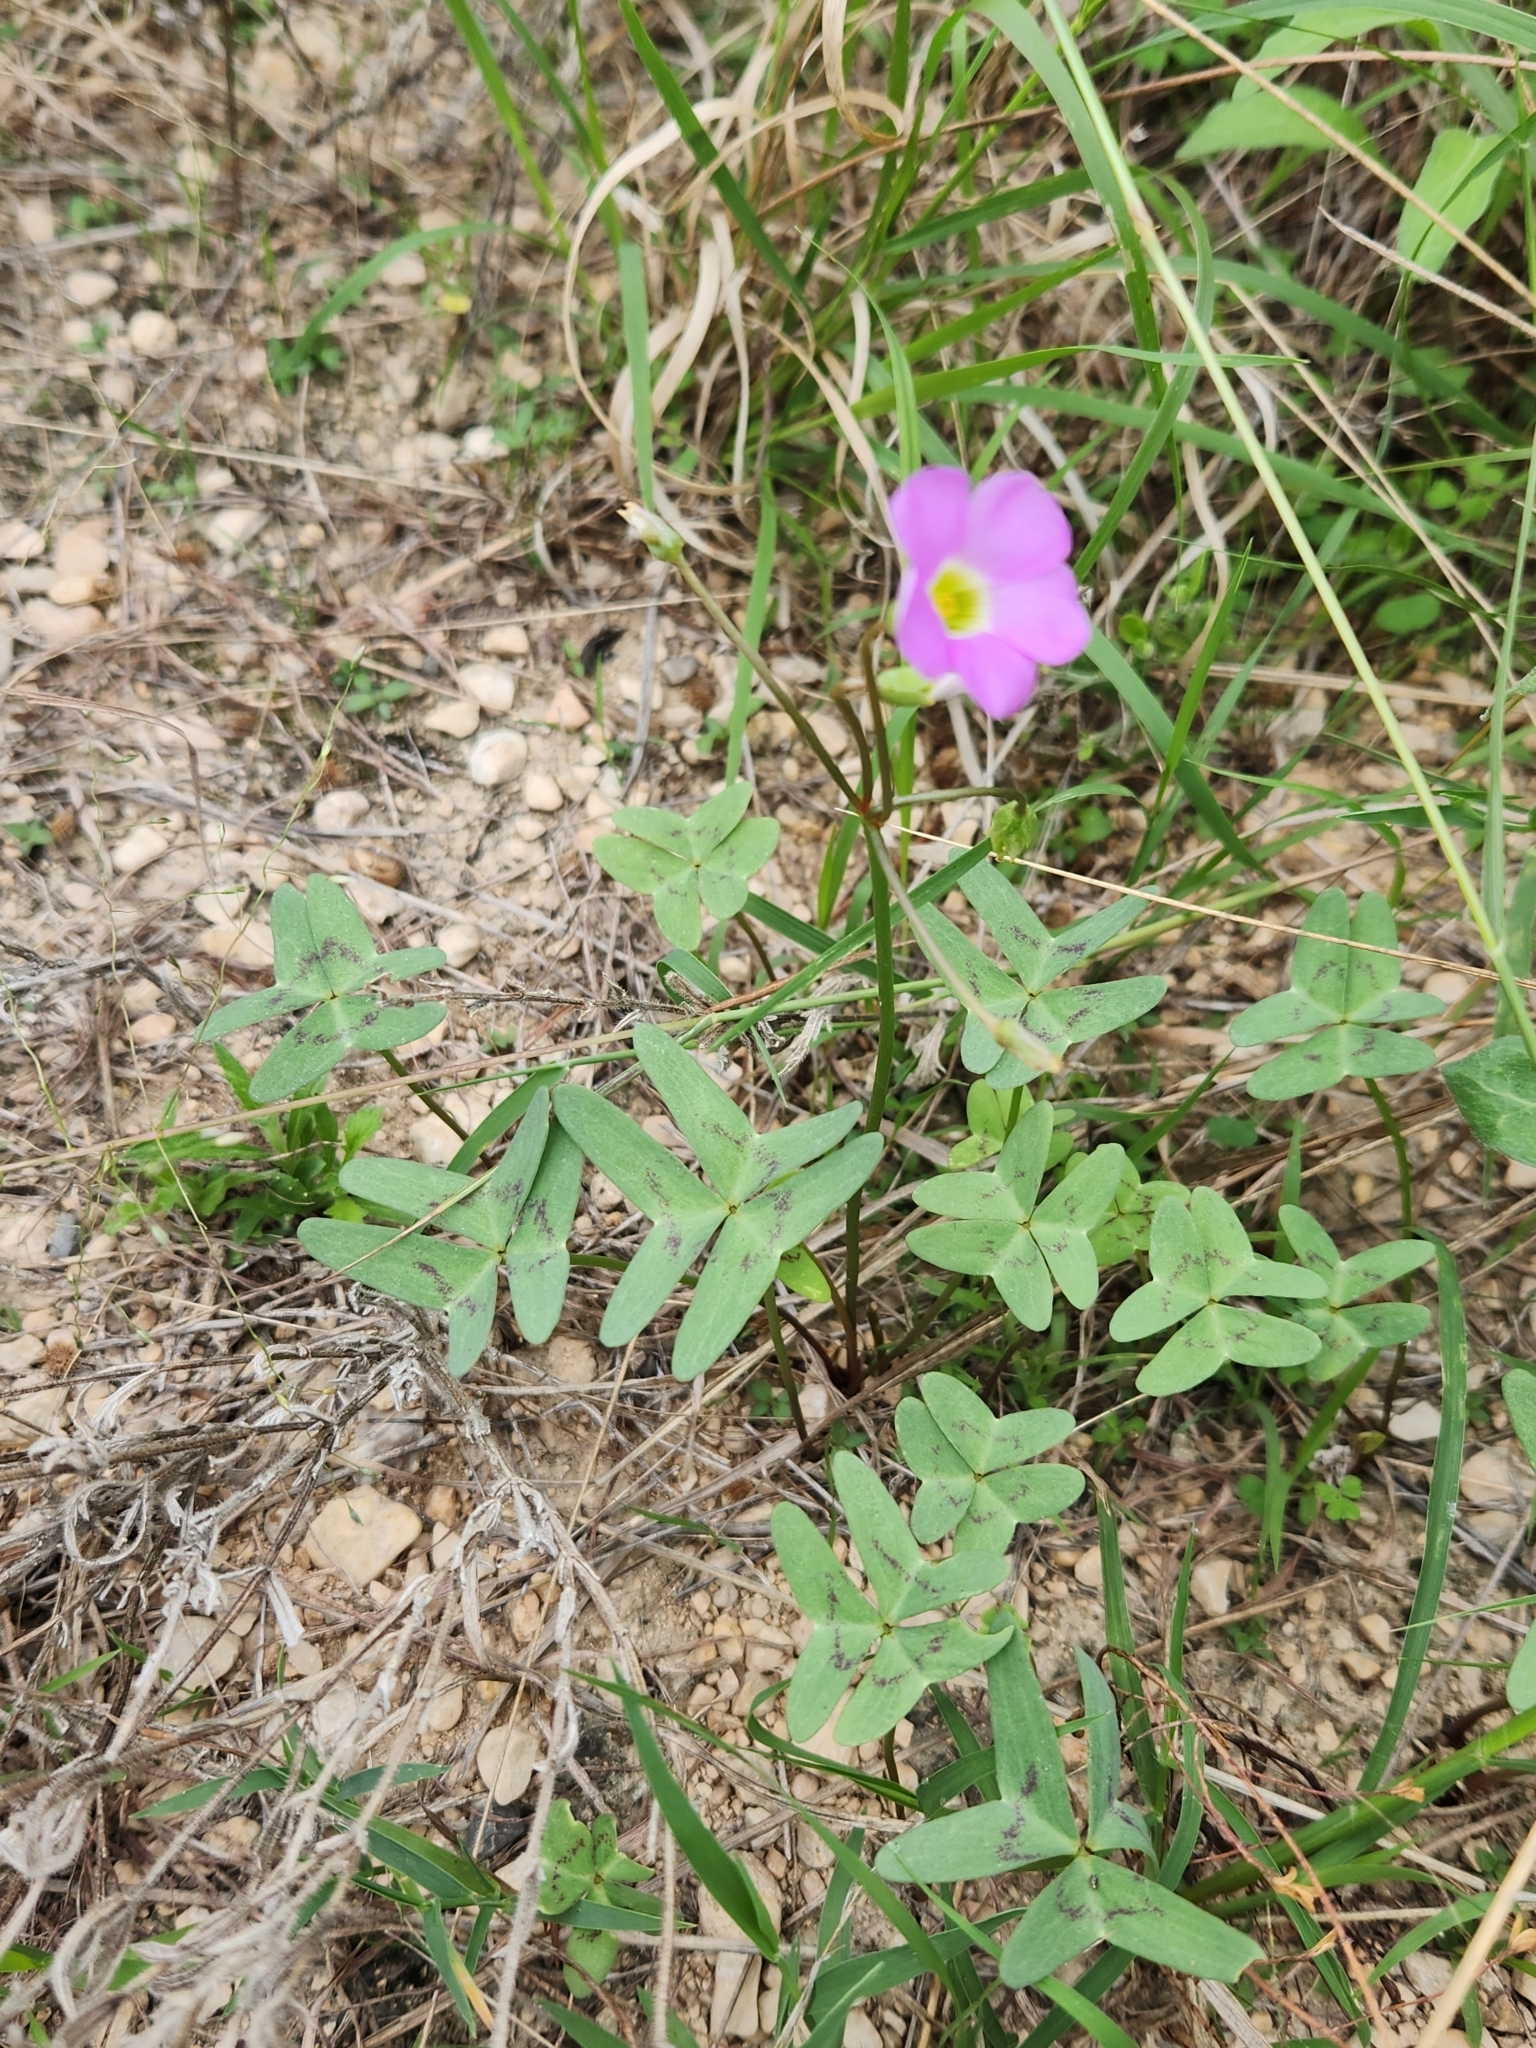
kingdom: Plantae
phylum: Tracheophyta
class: Magnoliopsida
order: Oxalidales
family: Oxalidaceae
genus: Oxalis
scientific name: Oxalis drummondii
